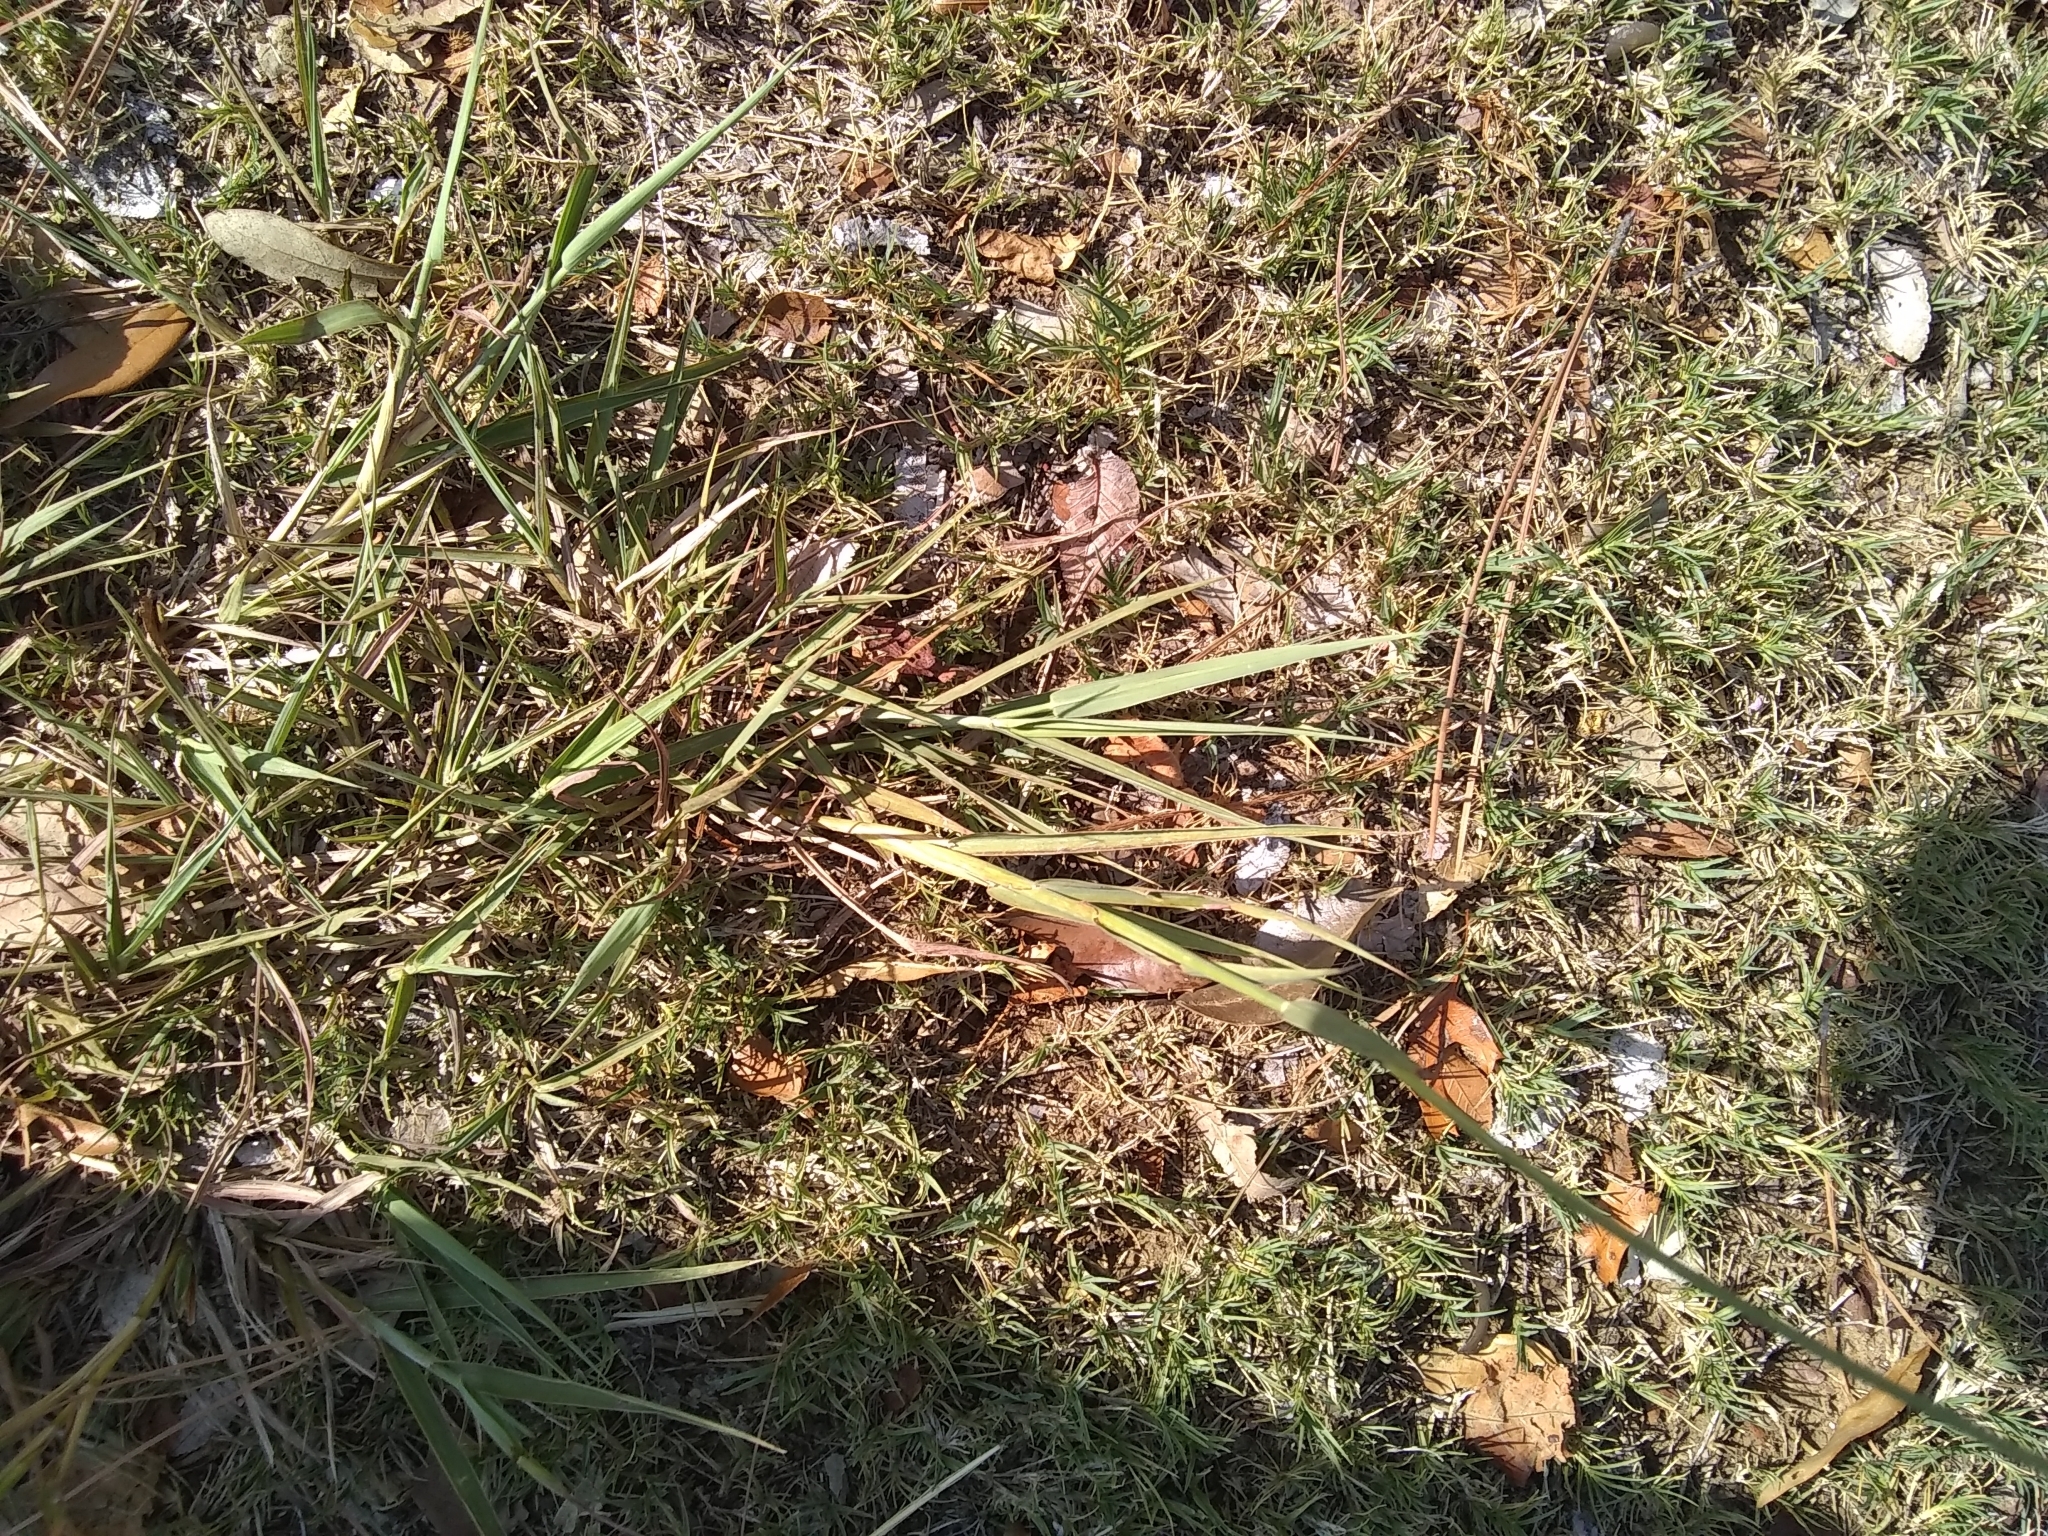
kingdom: Plantae
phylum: Tracheophyta
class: Liliopsida
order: Poales
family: Poaceae
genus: Bothriochloa
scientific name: Bothriochloa torreyana
